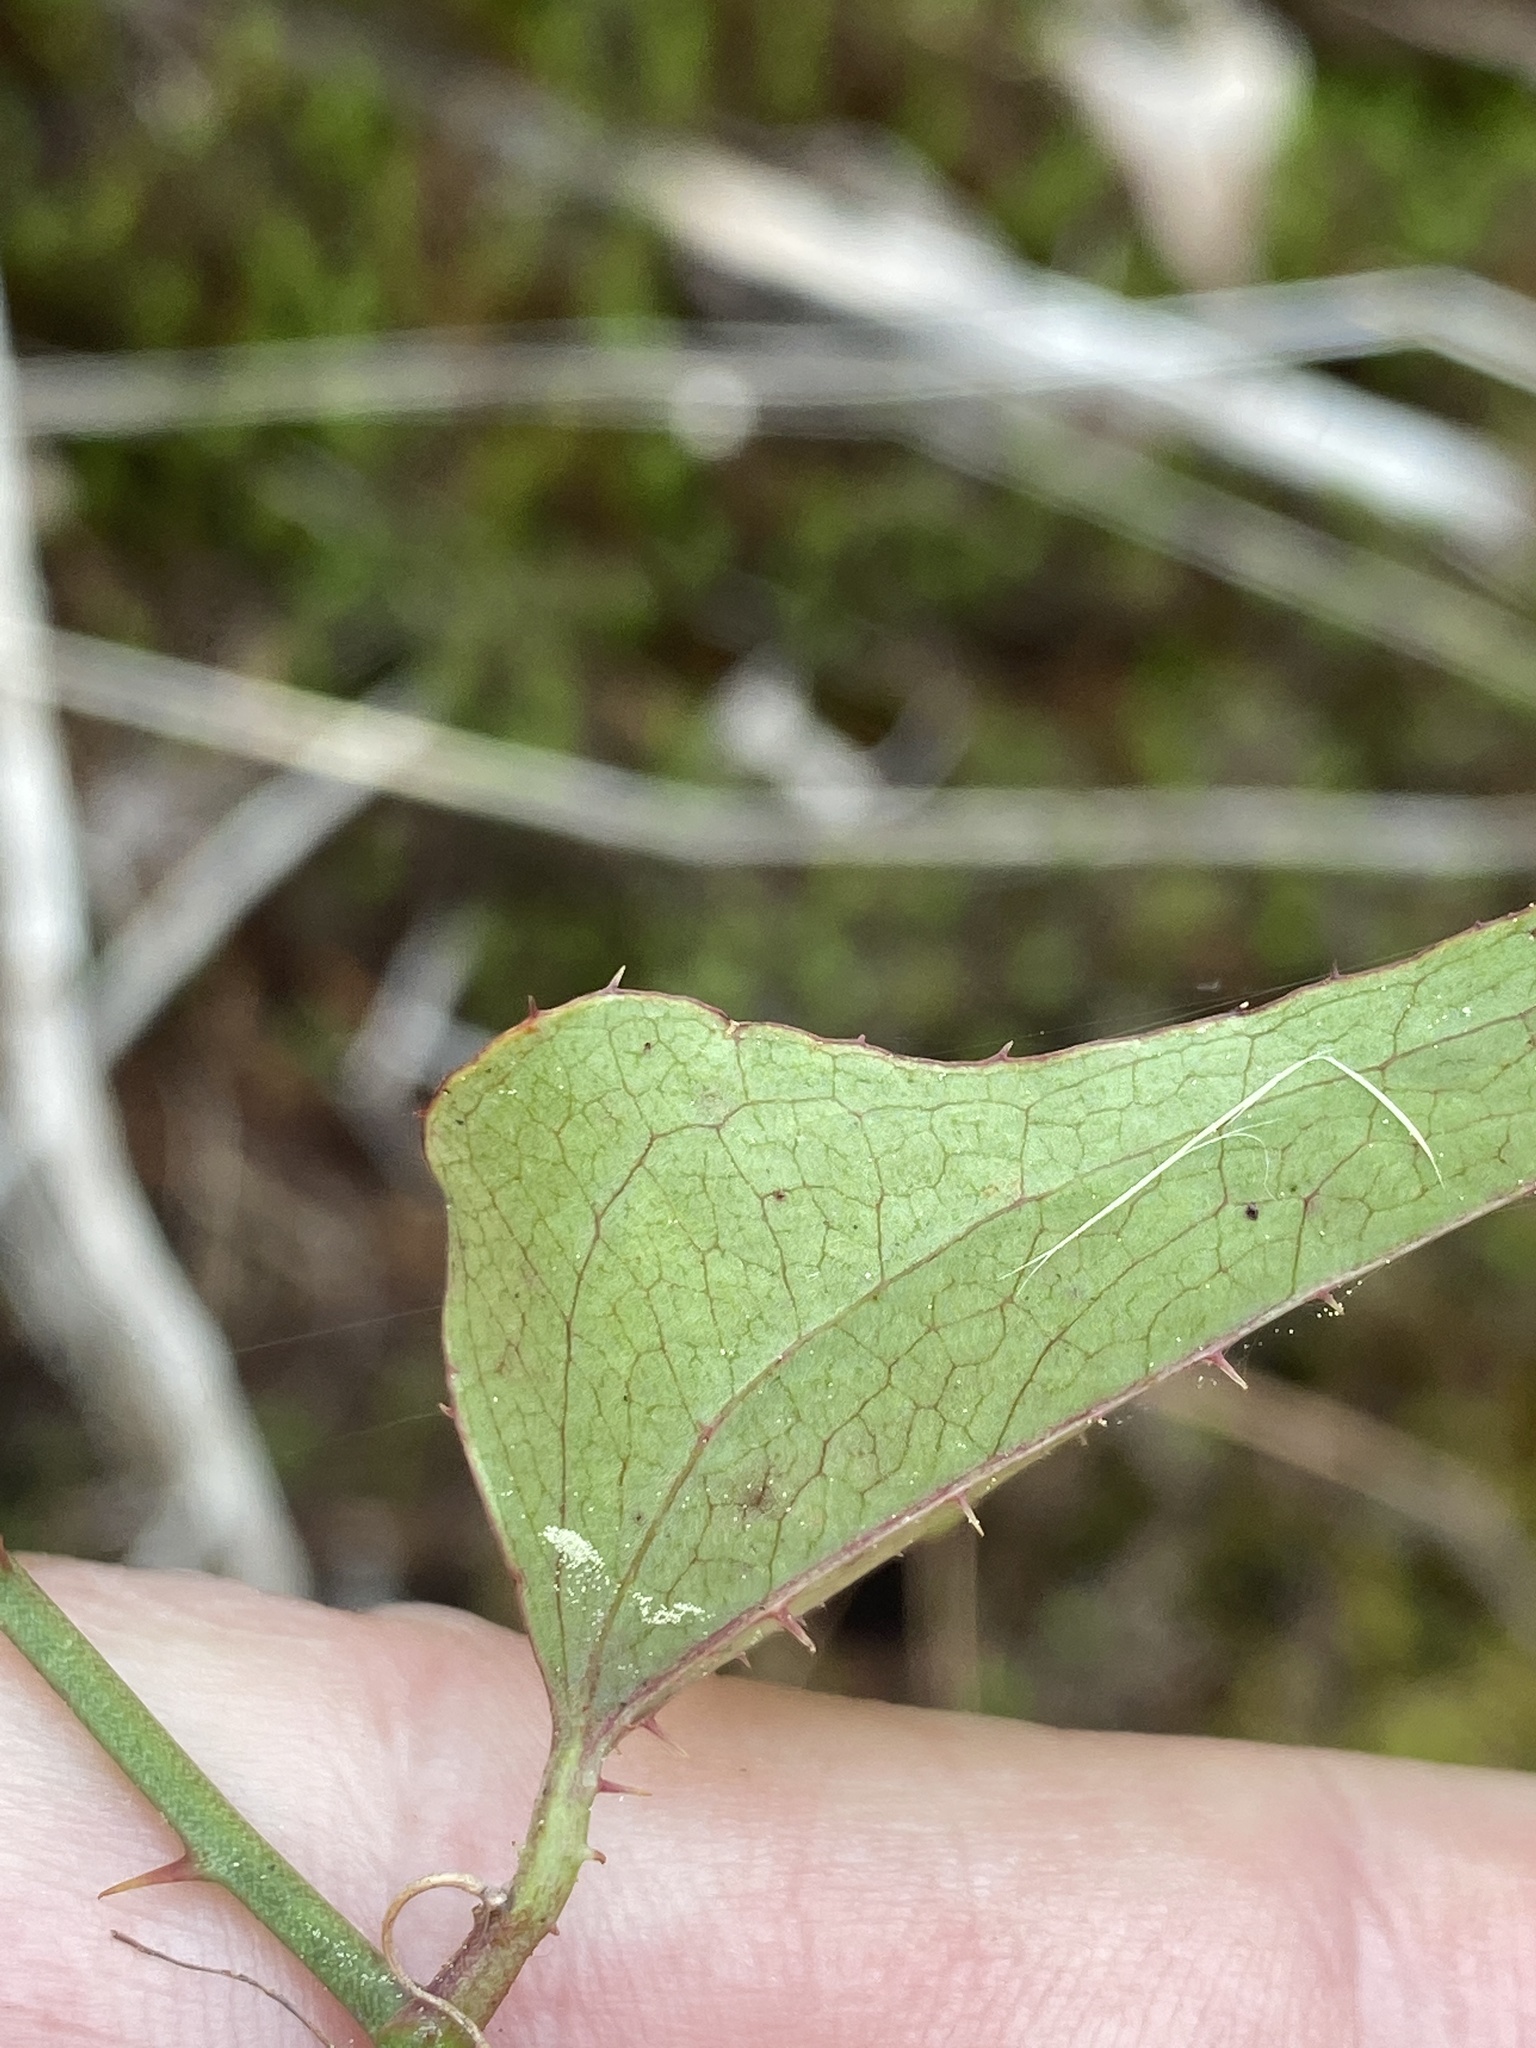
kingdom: Plantae
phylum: Tracheophyta
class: Liliopsida
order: Liliales
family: Smilacaceae
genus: Smilax
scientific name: Smilax bona-nox
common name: Catbrier
